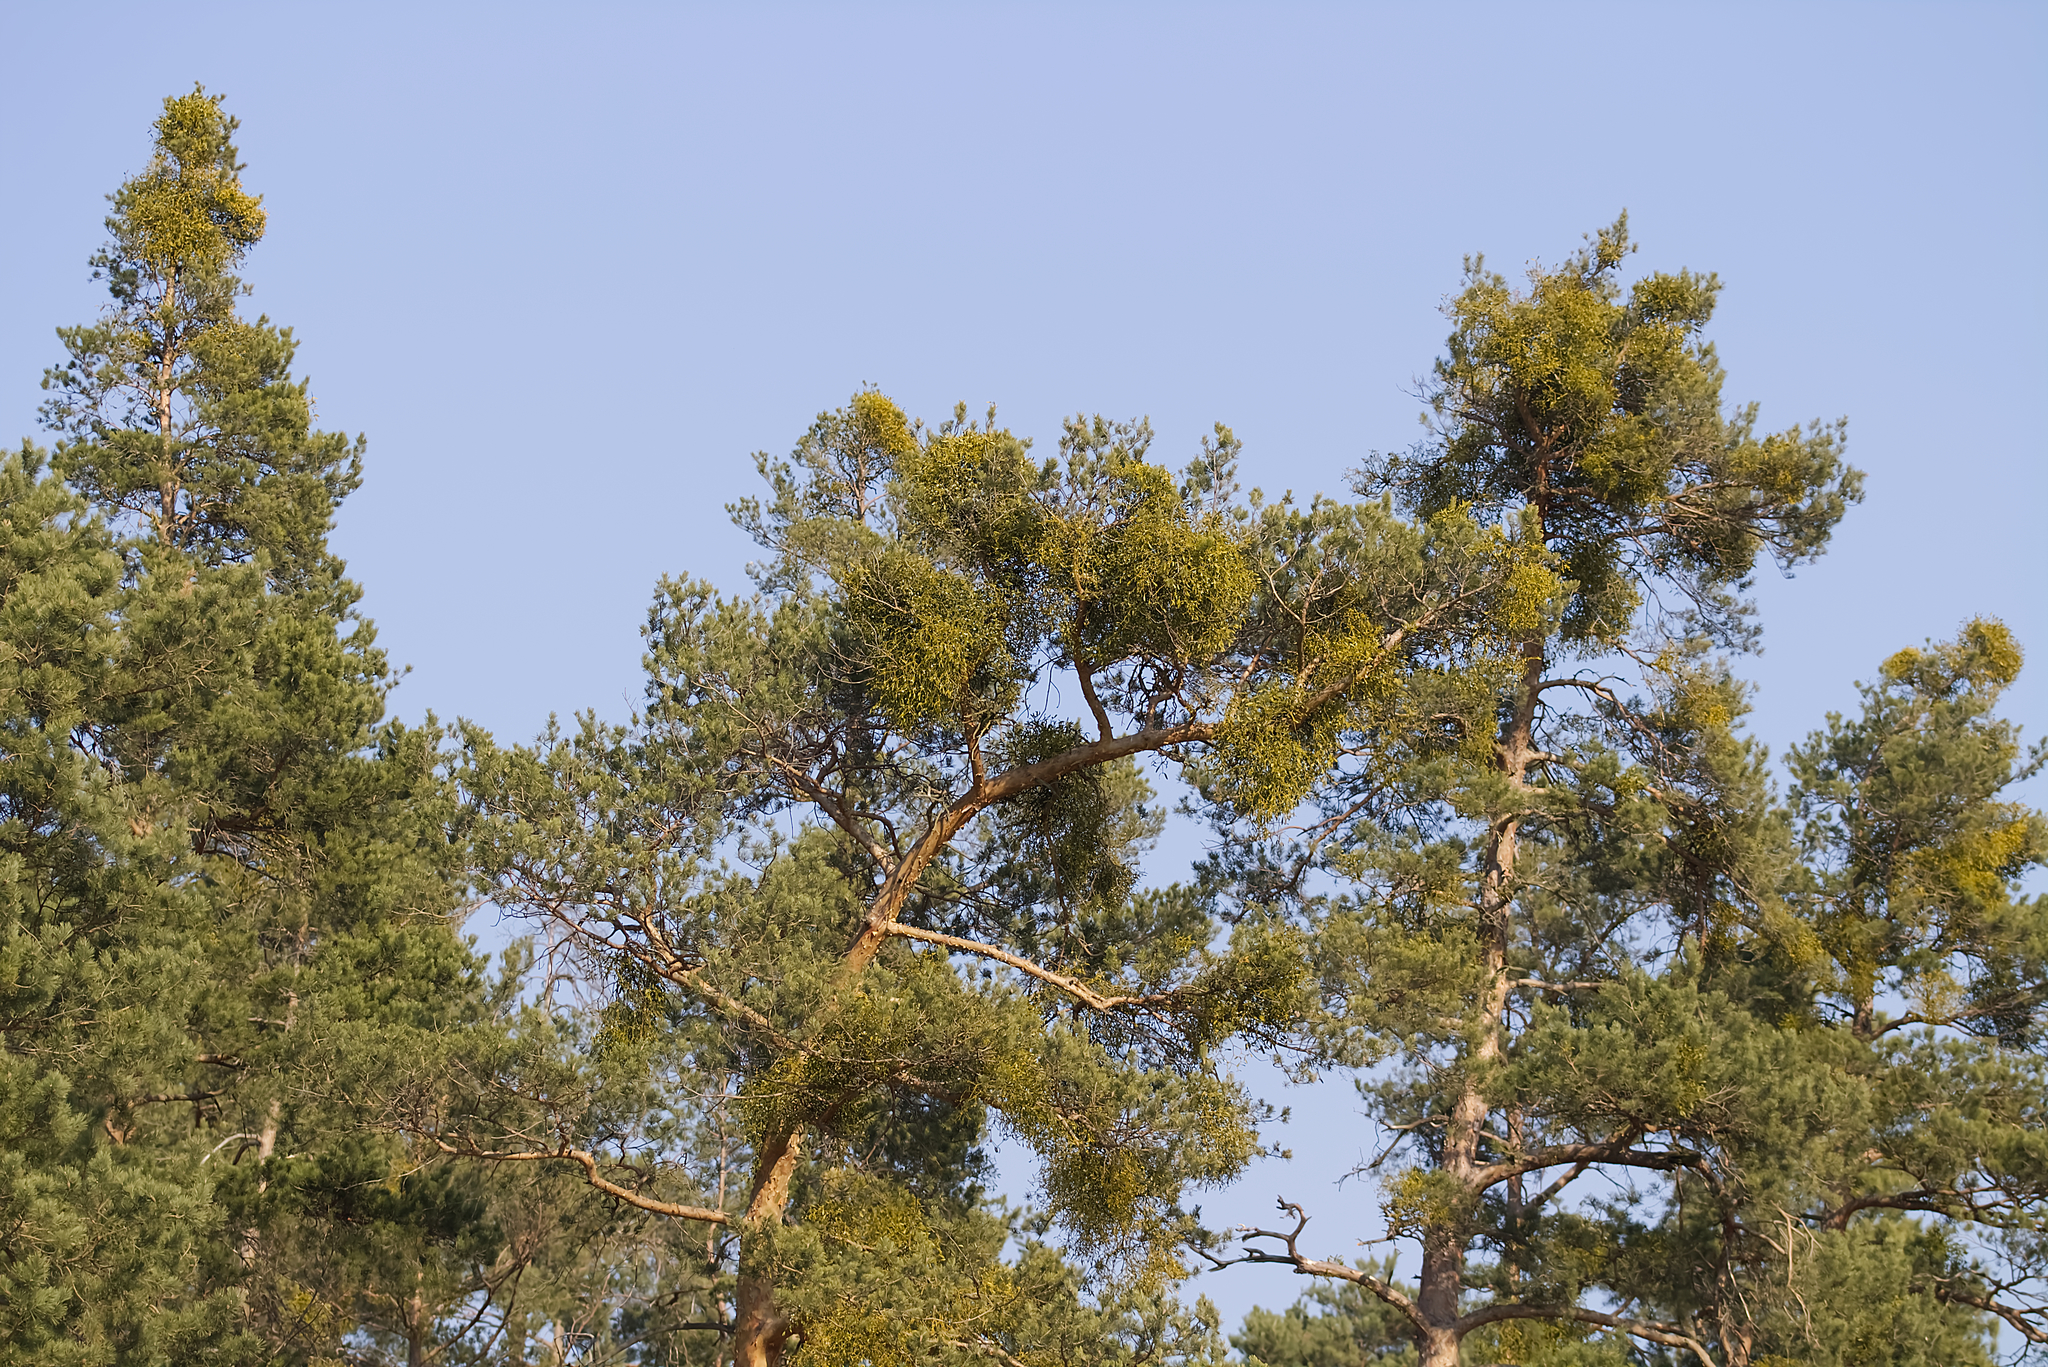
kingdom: Plantae
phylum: Tracheophyta
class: Magnoliopsida
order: Santalales
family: Viscaceae
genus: Viscum
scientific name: Viscum laxum
